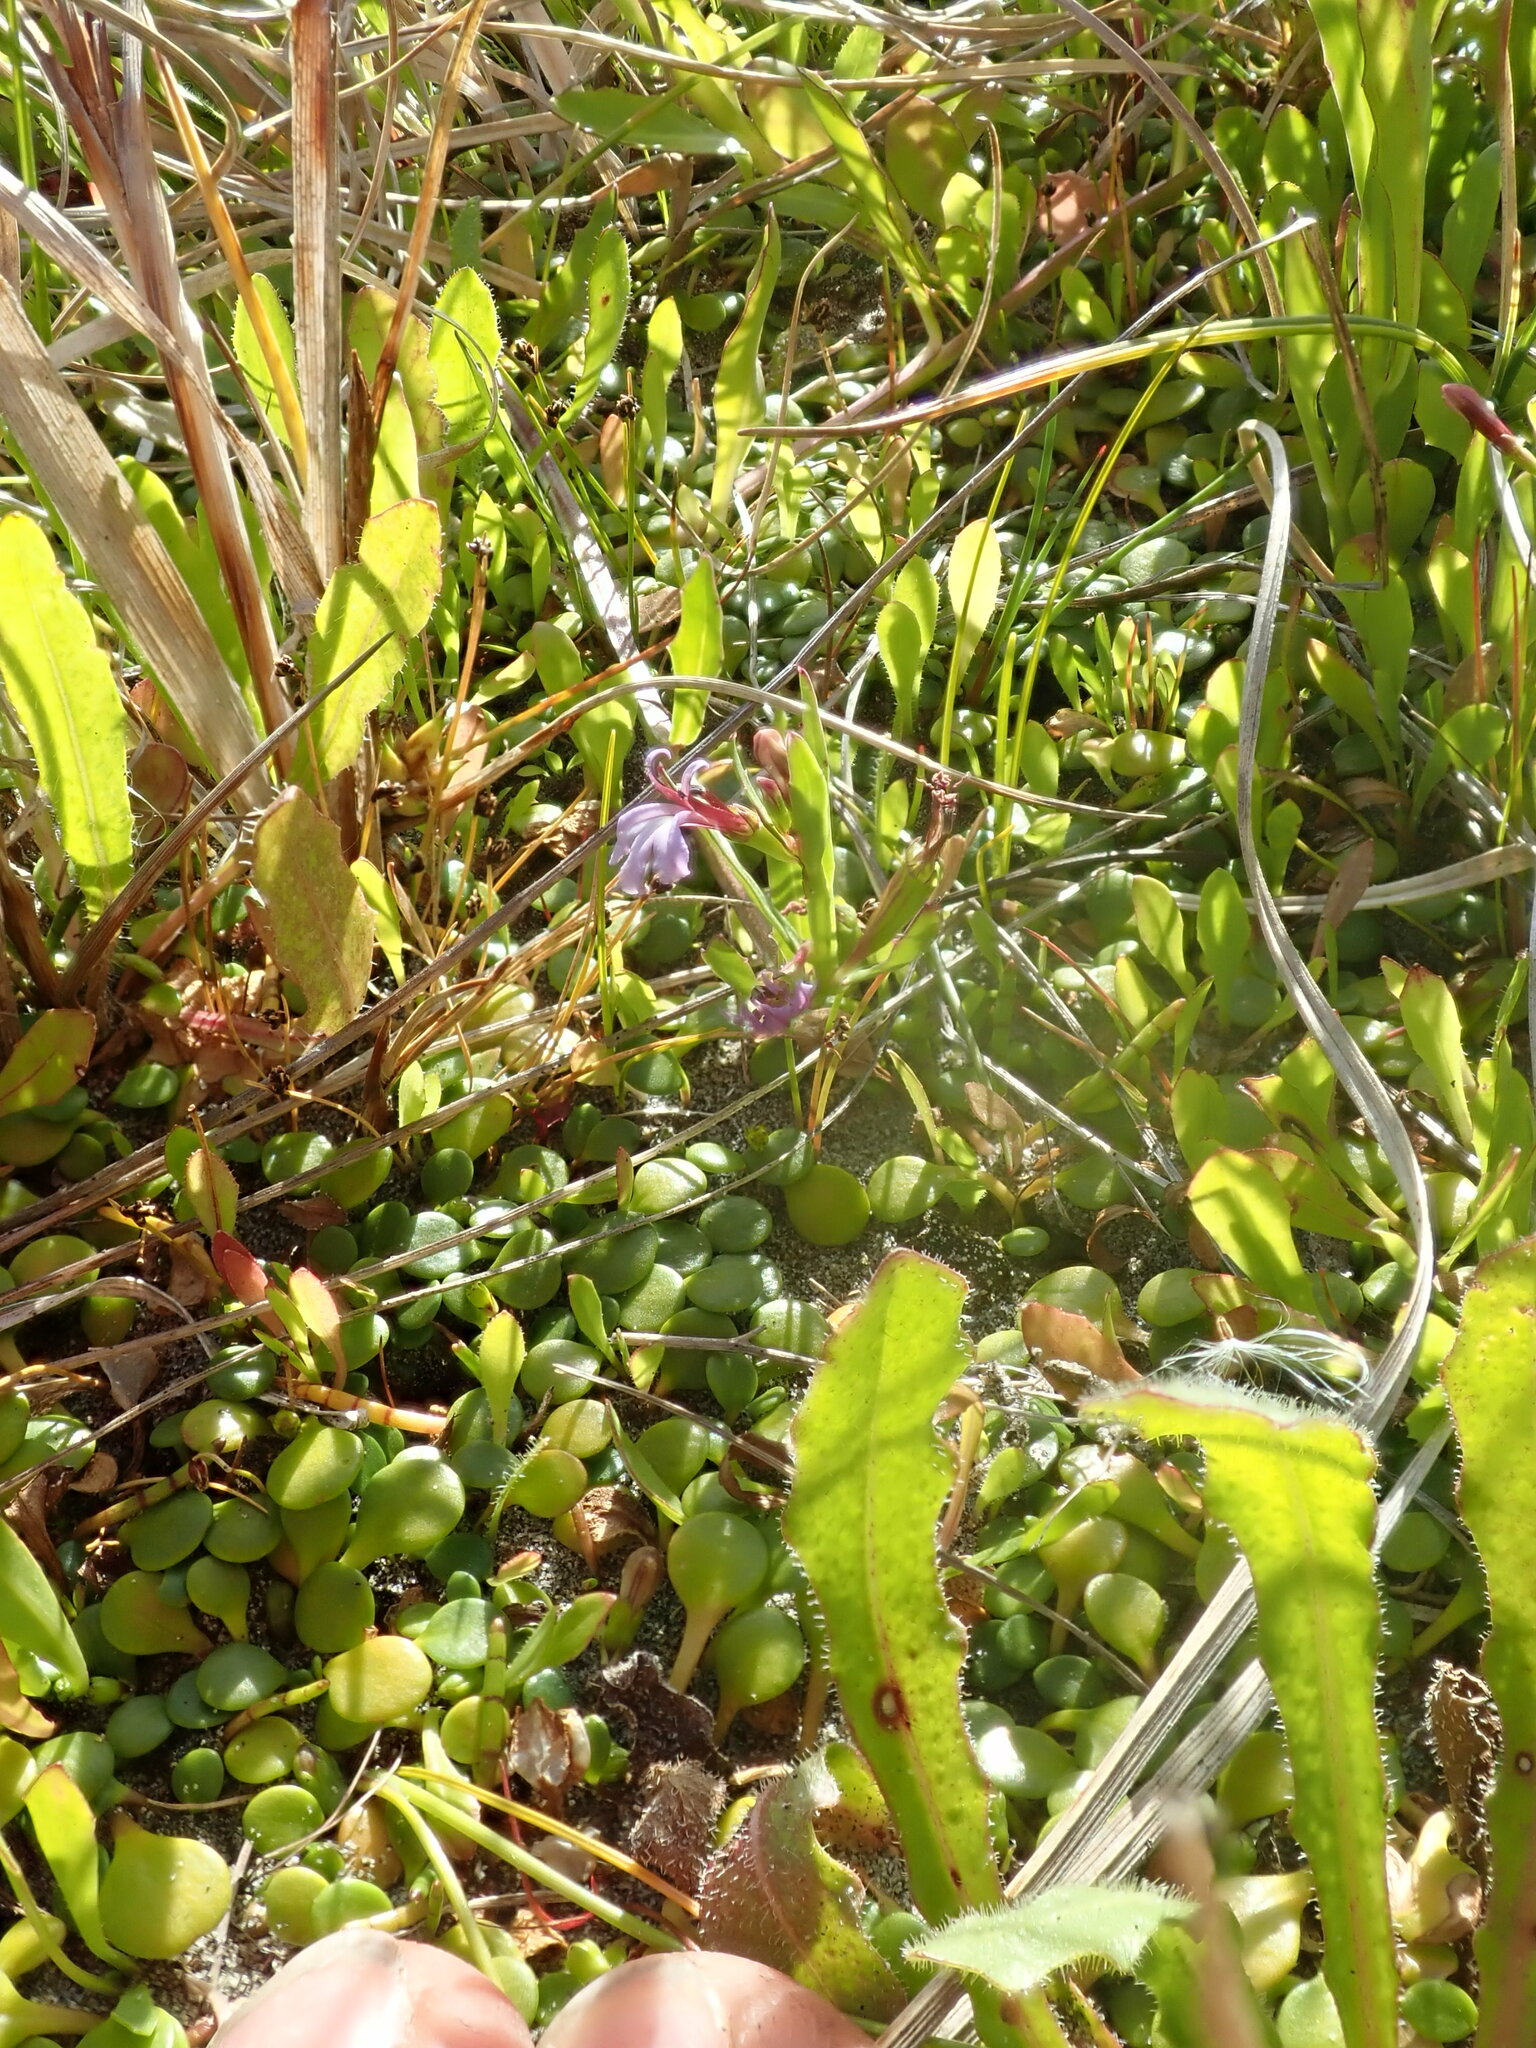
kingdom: Plantae
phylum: Tracheophyta
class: Magnoliopsida
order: Asterales
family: Campanulaceae
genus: Lobelia
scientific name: Lobelia anceps
